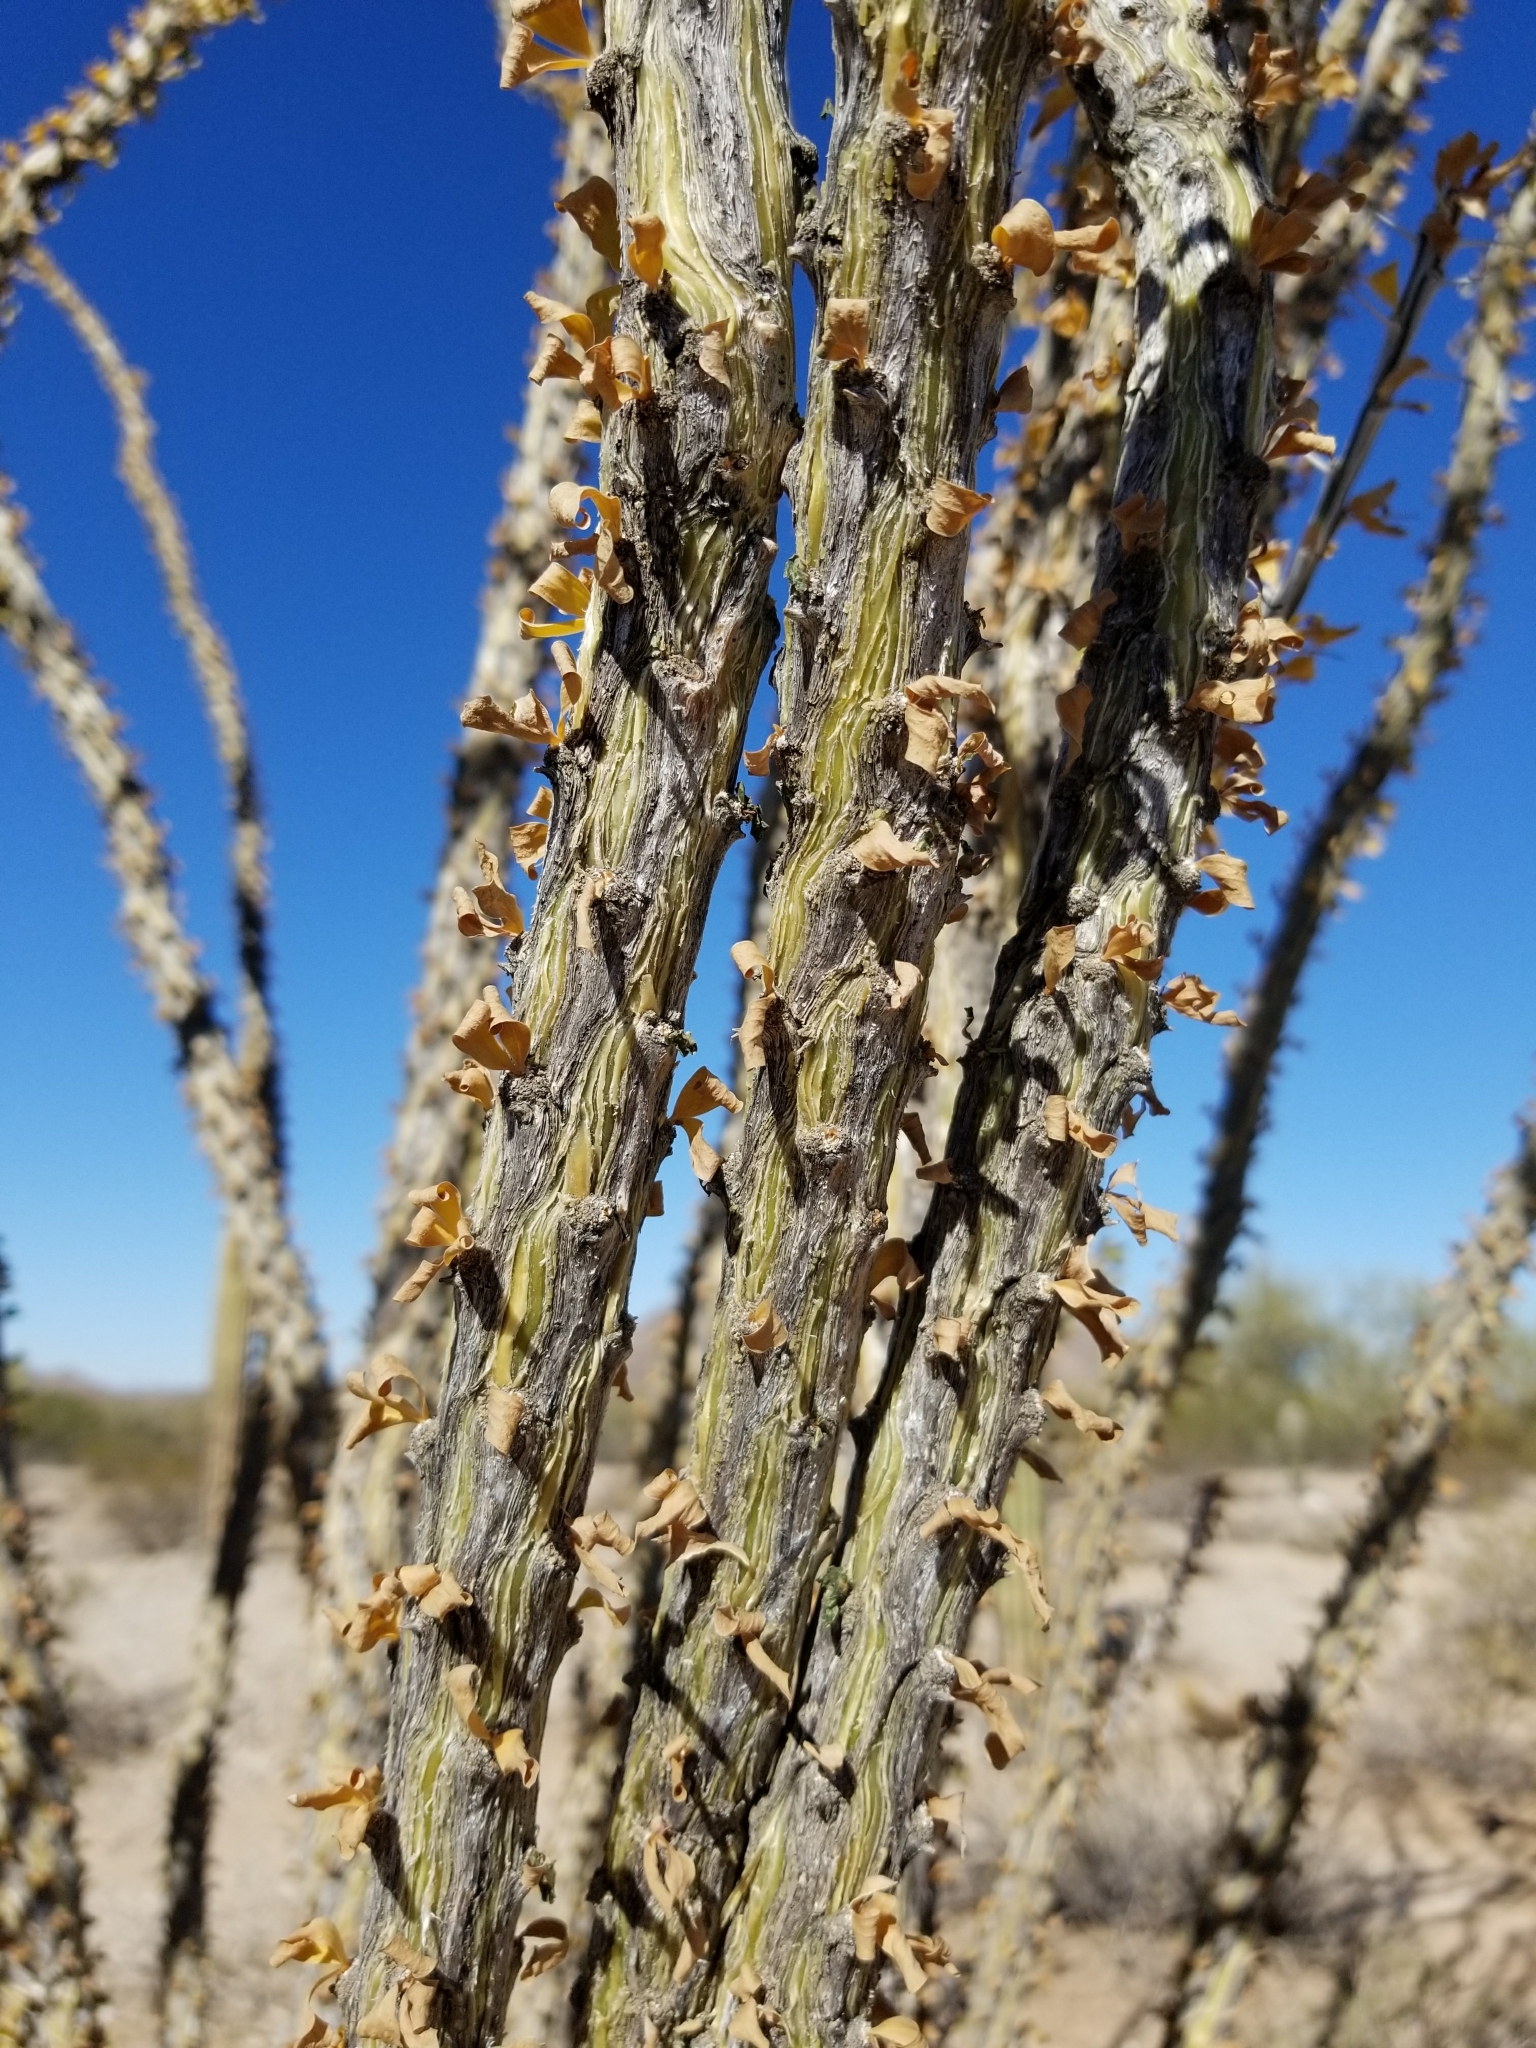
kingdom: Plantae
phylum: Tracheophyta
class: Magnoliopsida
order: Ericales
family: Fouquieriaceae
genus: Fouquieria
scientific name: Fouquieria splendens
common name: Vine-cactus
